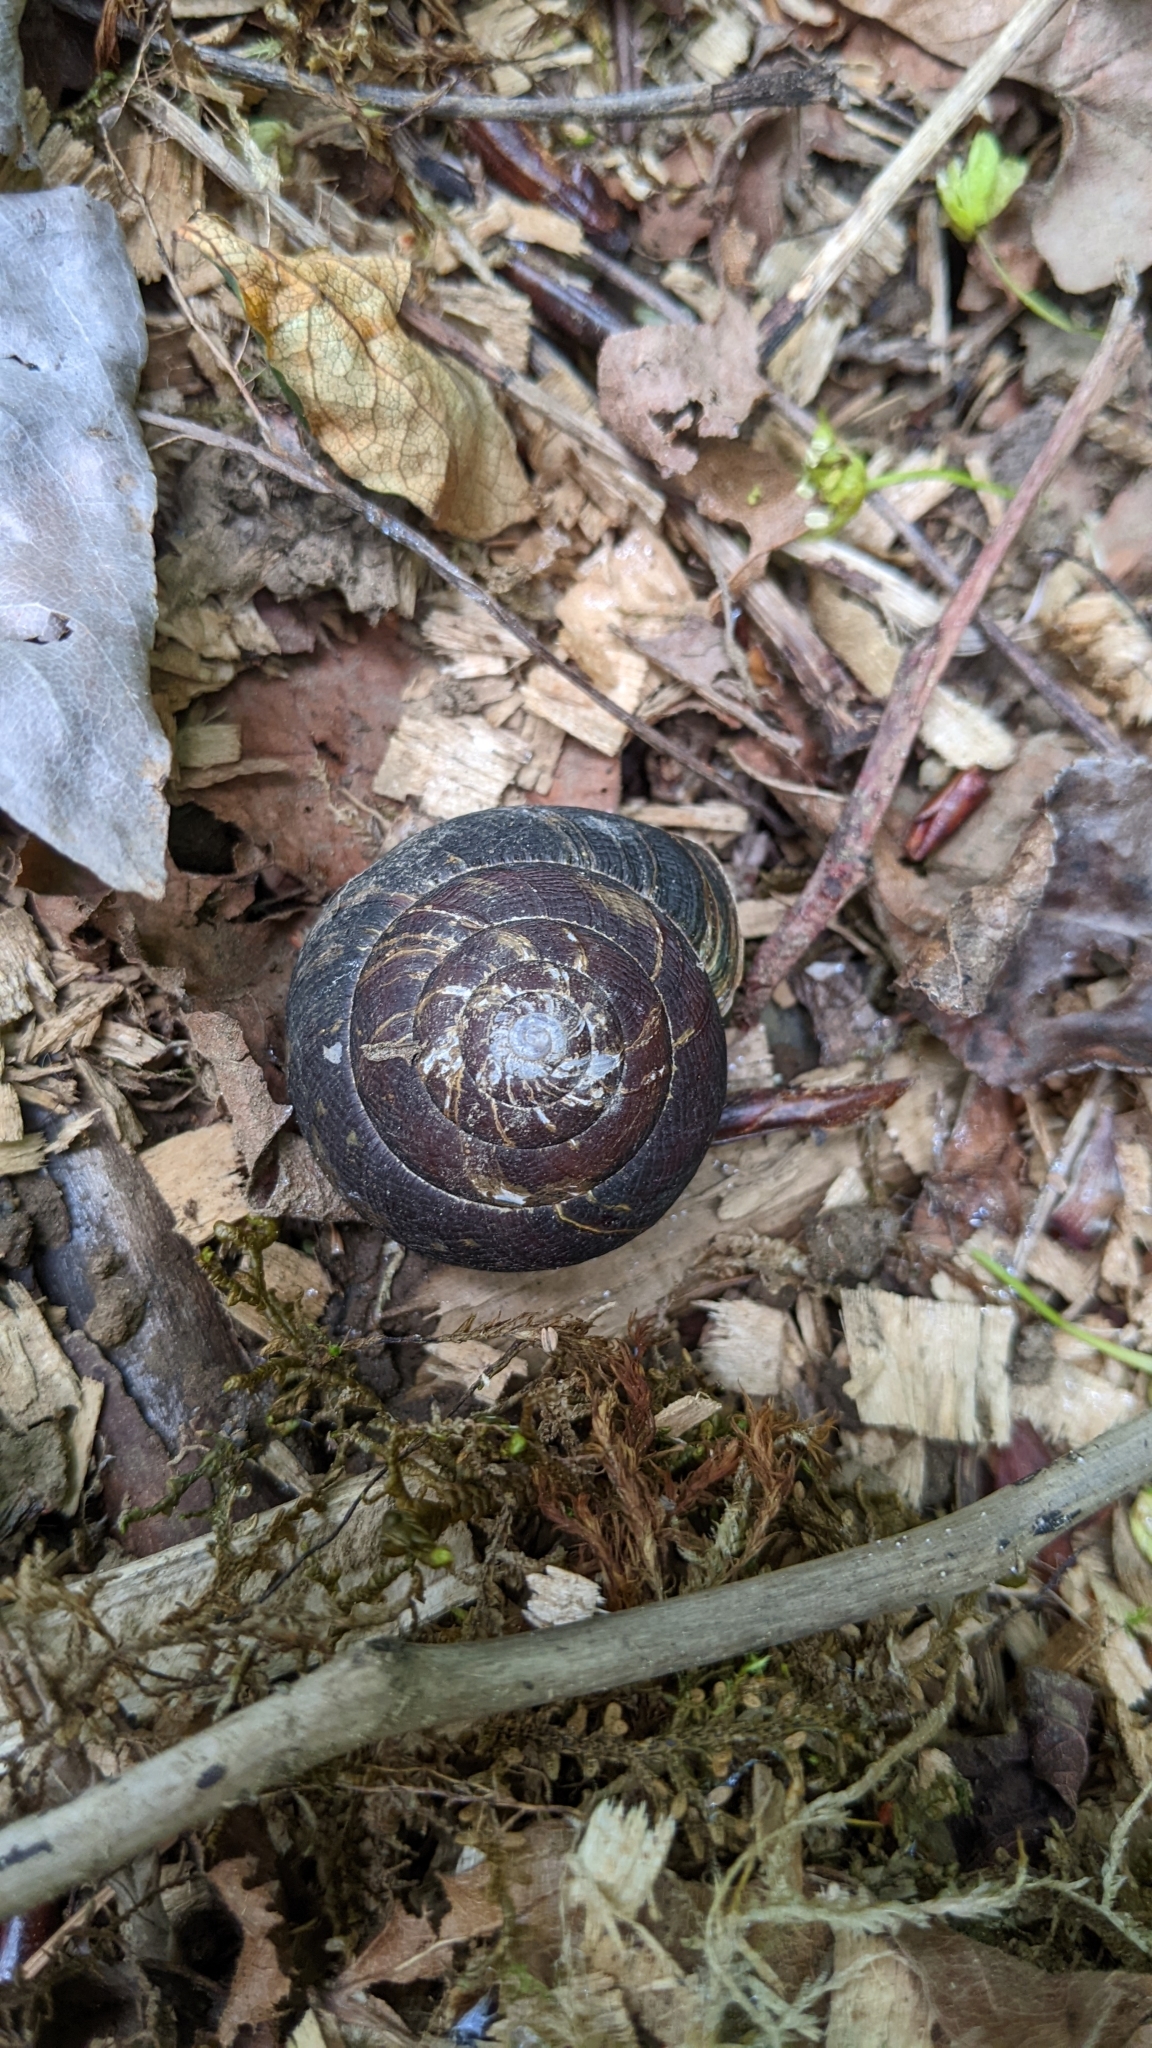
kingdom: Animalia
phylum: Mollusca
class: Gastropoda
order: Stylommatophora
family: Xanthonychidae
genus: Monadenia
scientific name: Monadenia fidelis
